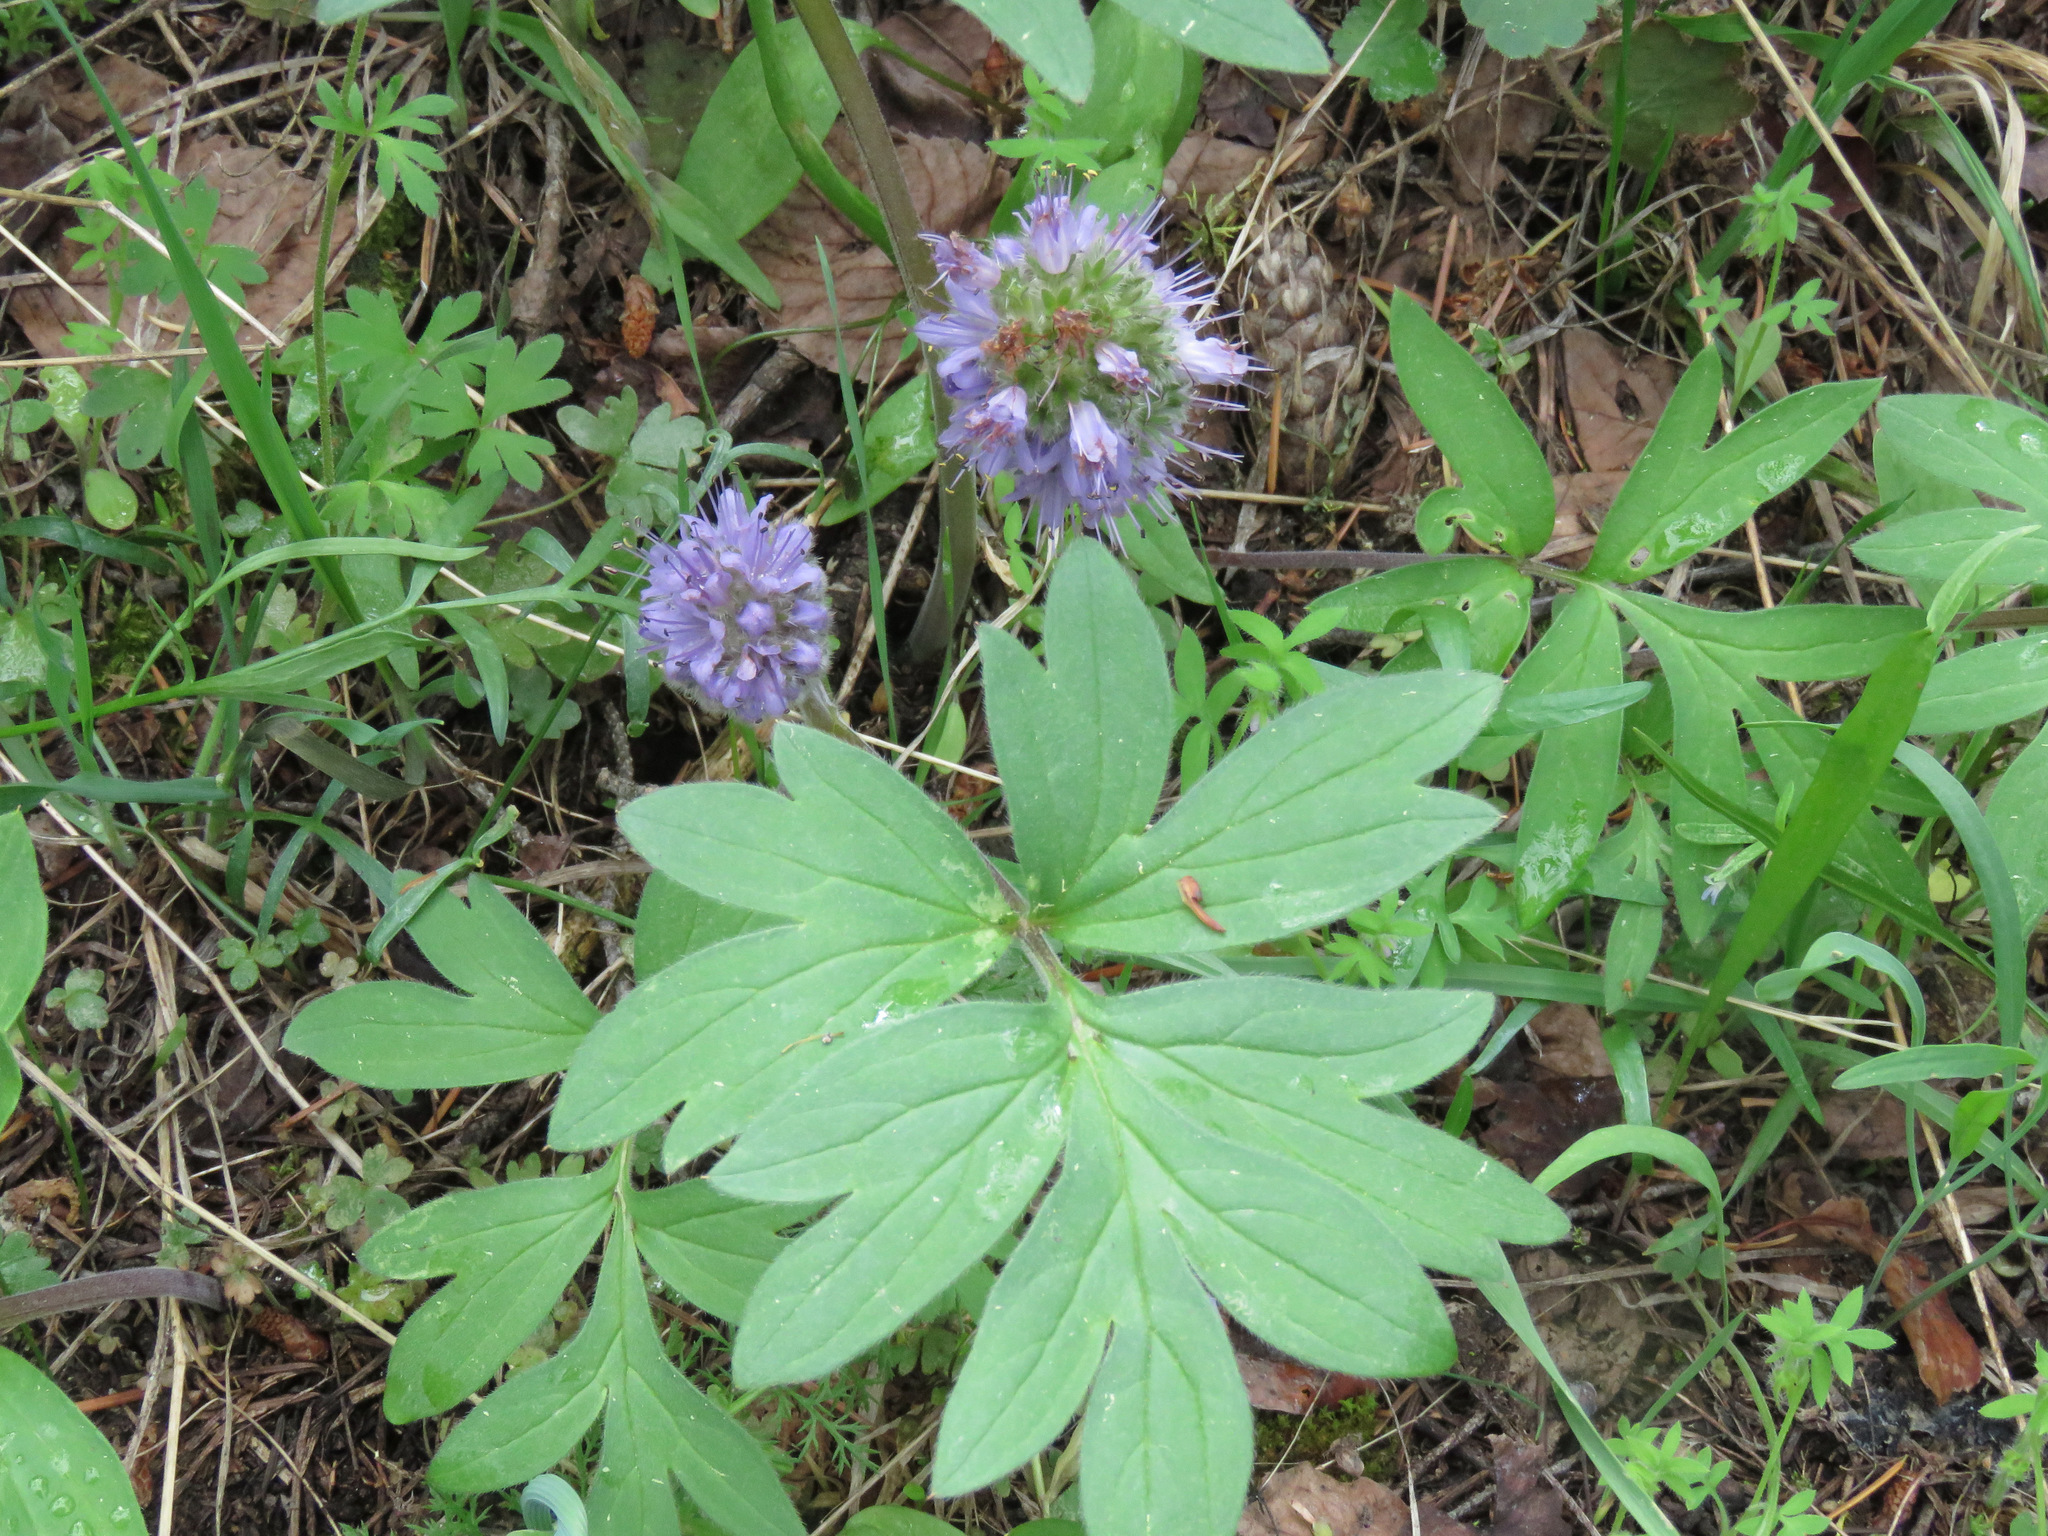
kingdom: Plantae
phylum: Tracheophyta
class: Magnoliopsida
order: Boraginales
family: Hydrophyllaceae
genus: Hydrophyllum
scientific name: Hydrophyllum capitatum
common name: Woollen-breeches
